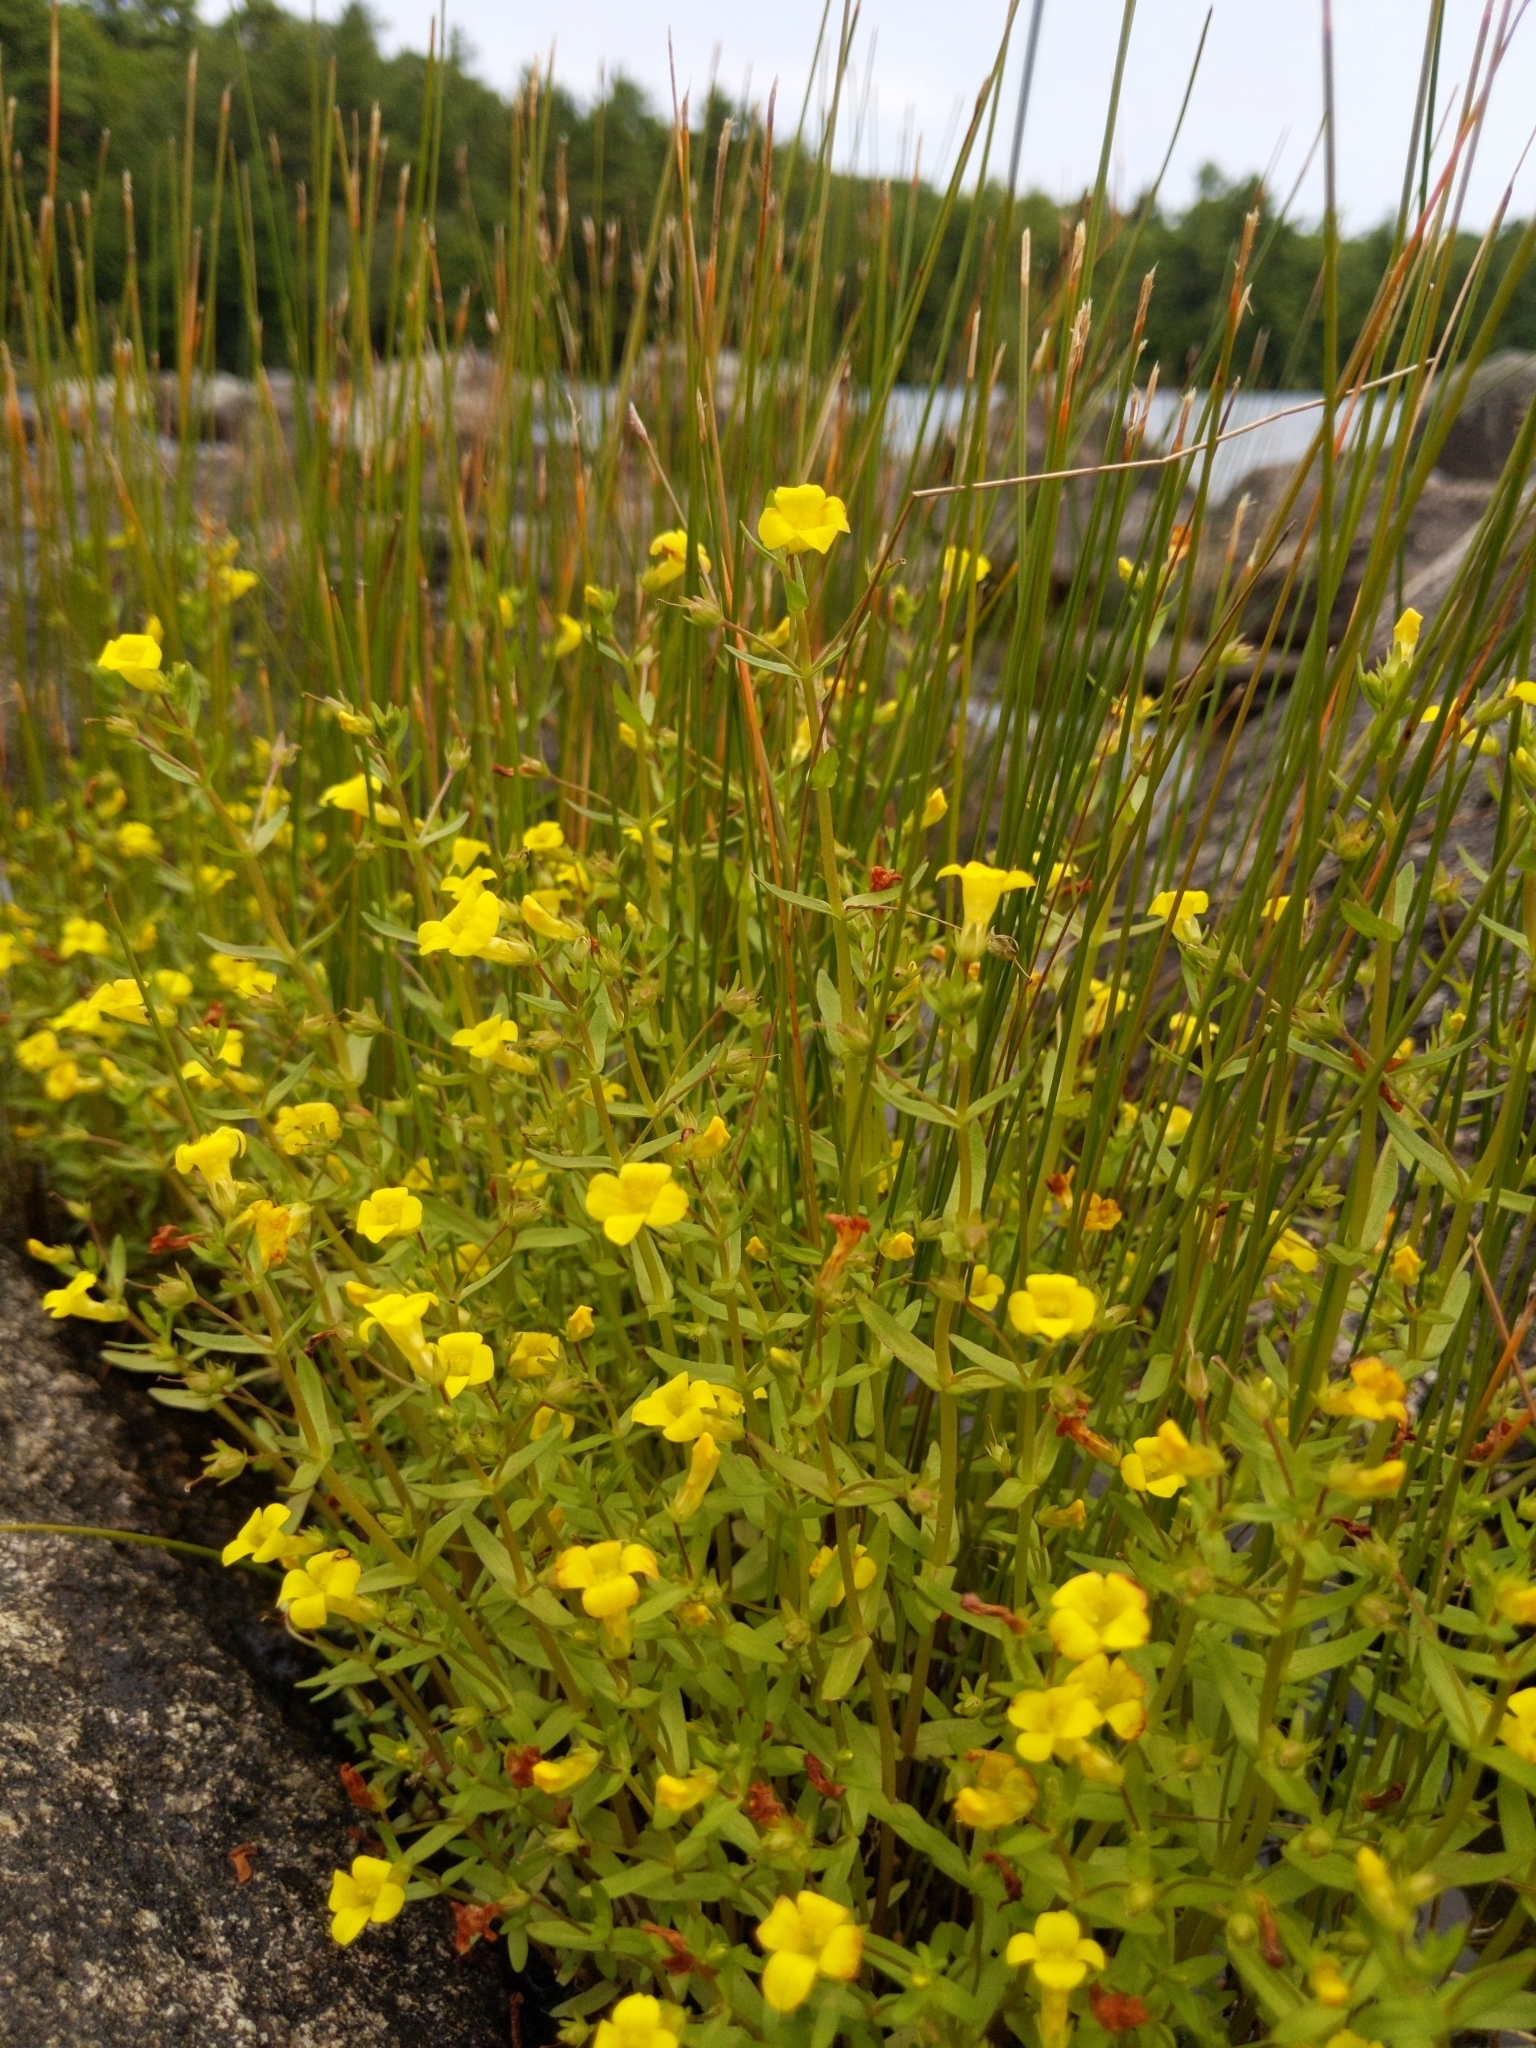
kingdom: Plantae
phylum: Tracheophyta
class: Magnoliopsida
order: Lamiales
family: Plantaginaceae
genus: Gratiola
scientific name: Gratiola lutea
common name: Golden hedge-hyssop
